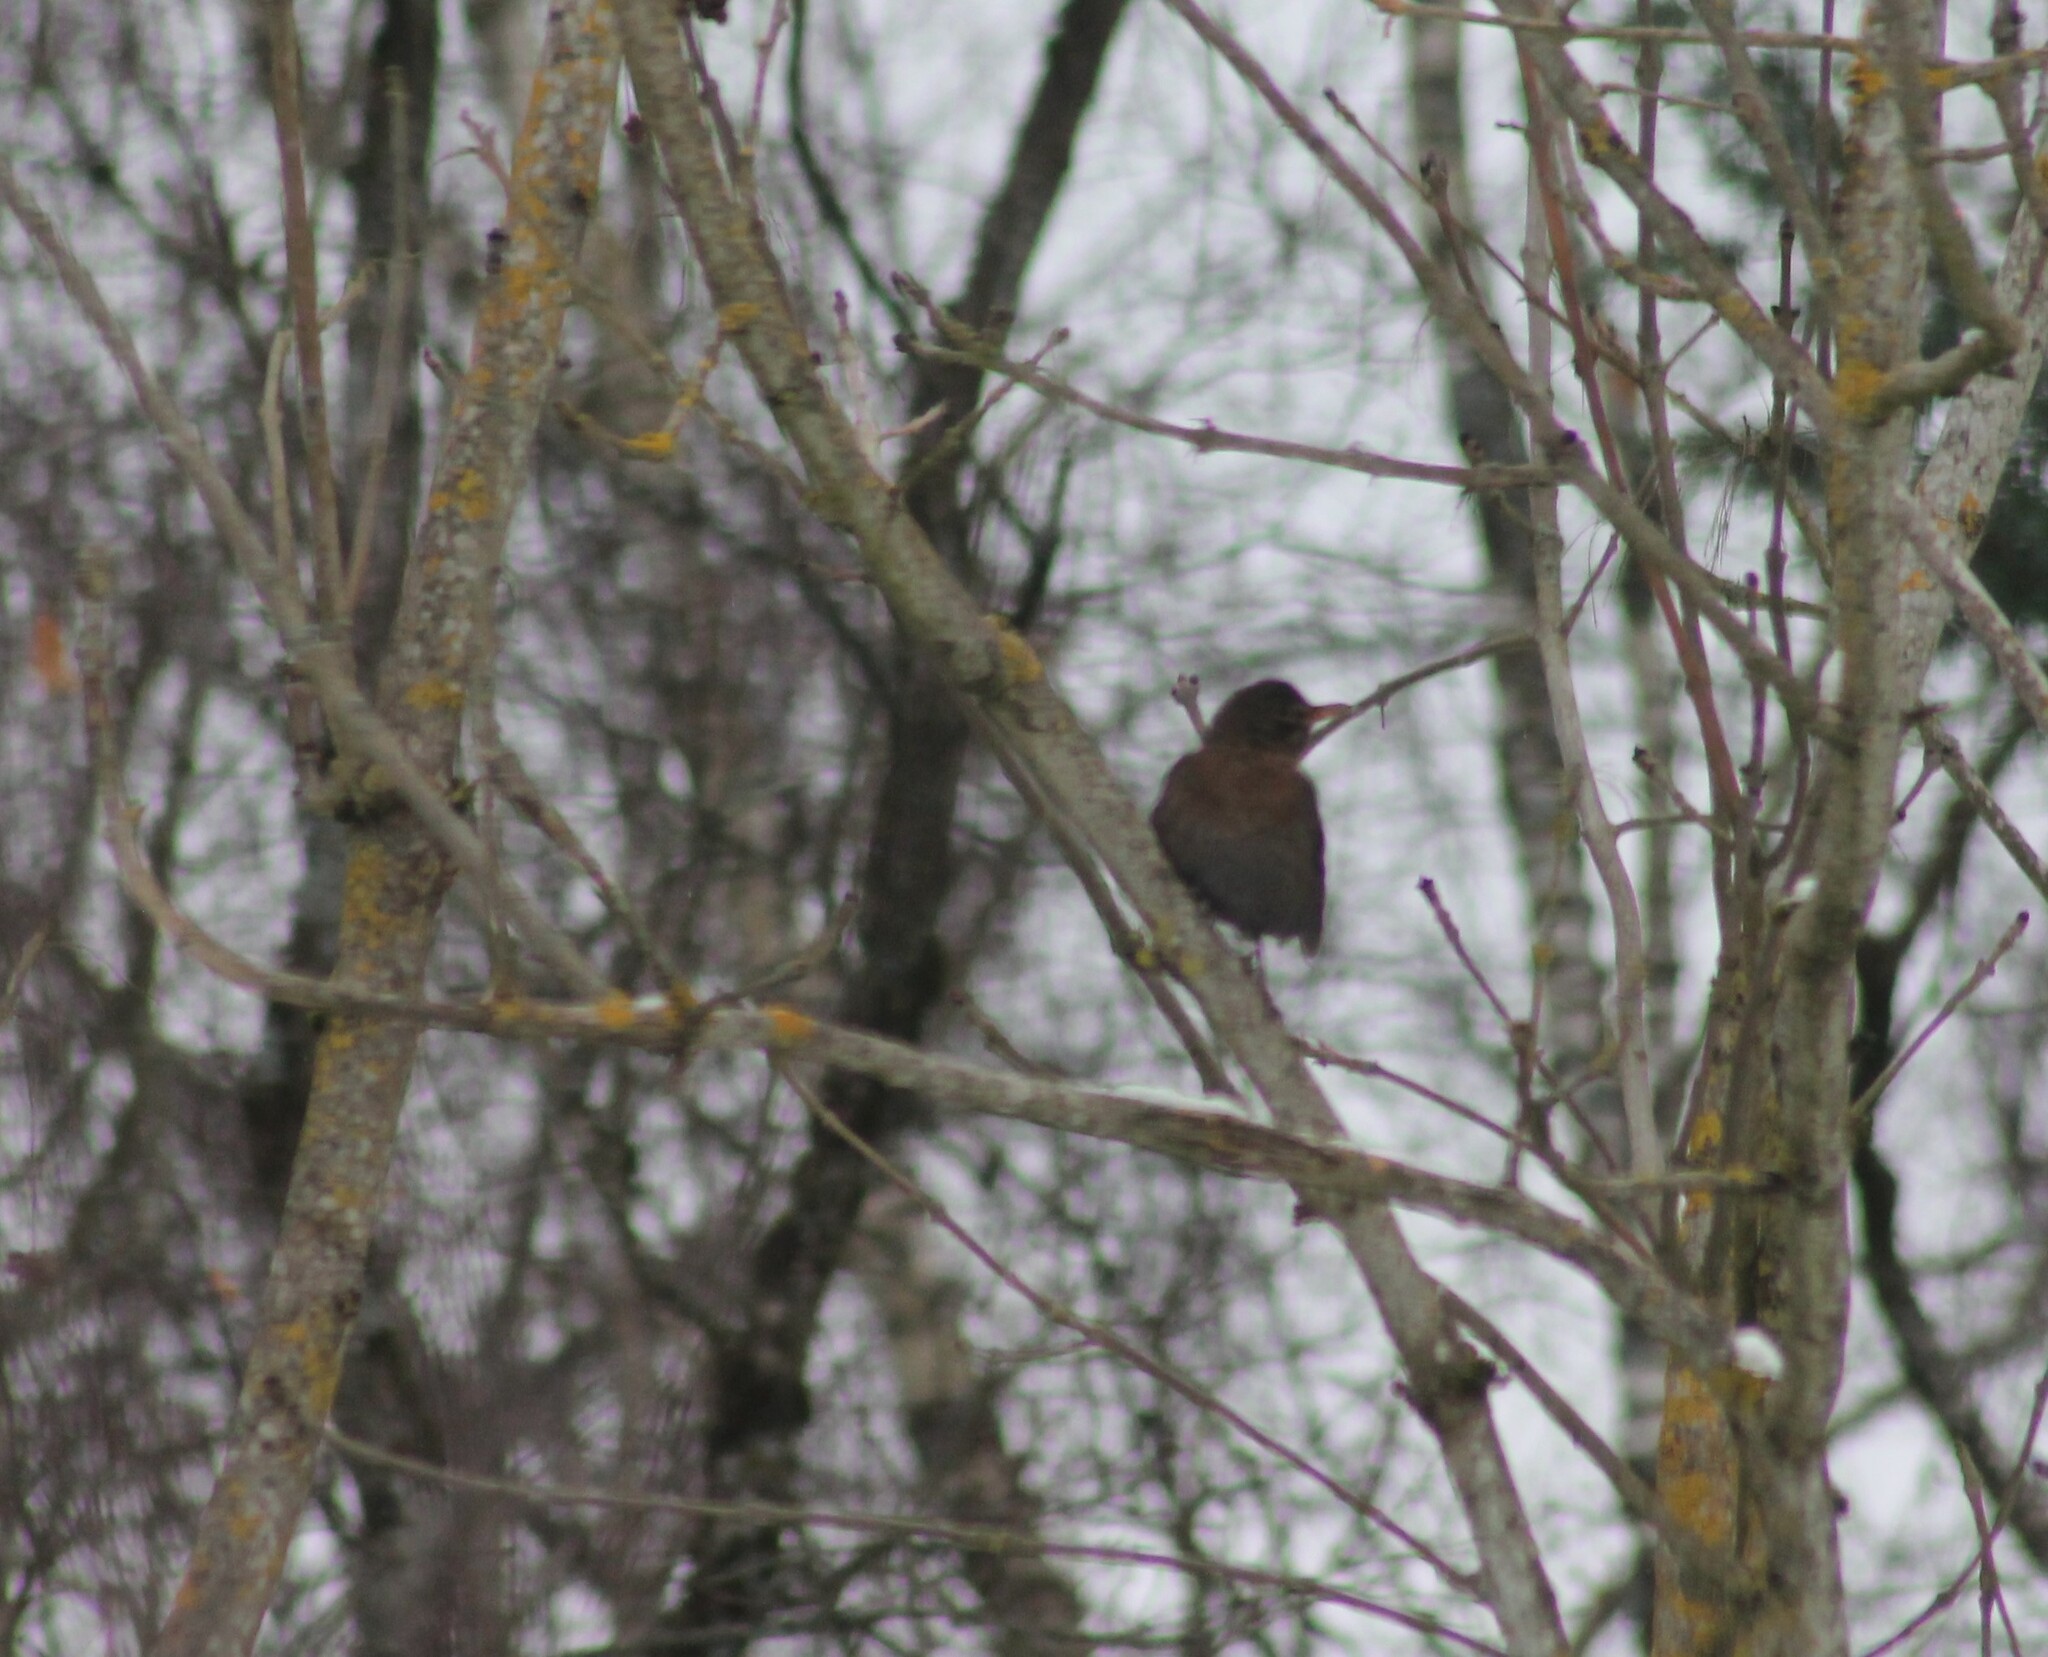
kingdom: Animalia
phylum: Chordata
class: Aves
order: Passeriformes
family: Turdidae
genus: Turdus
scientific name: Turdus merula
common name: Common blackbird
